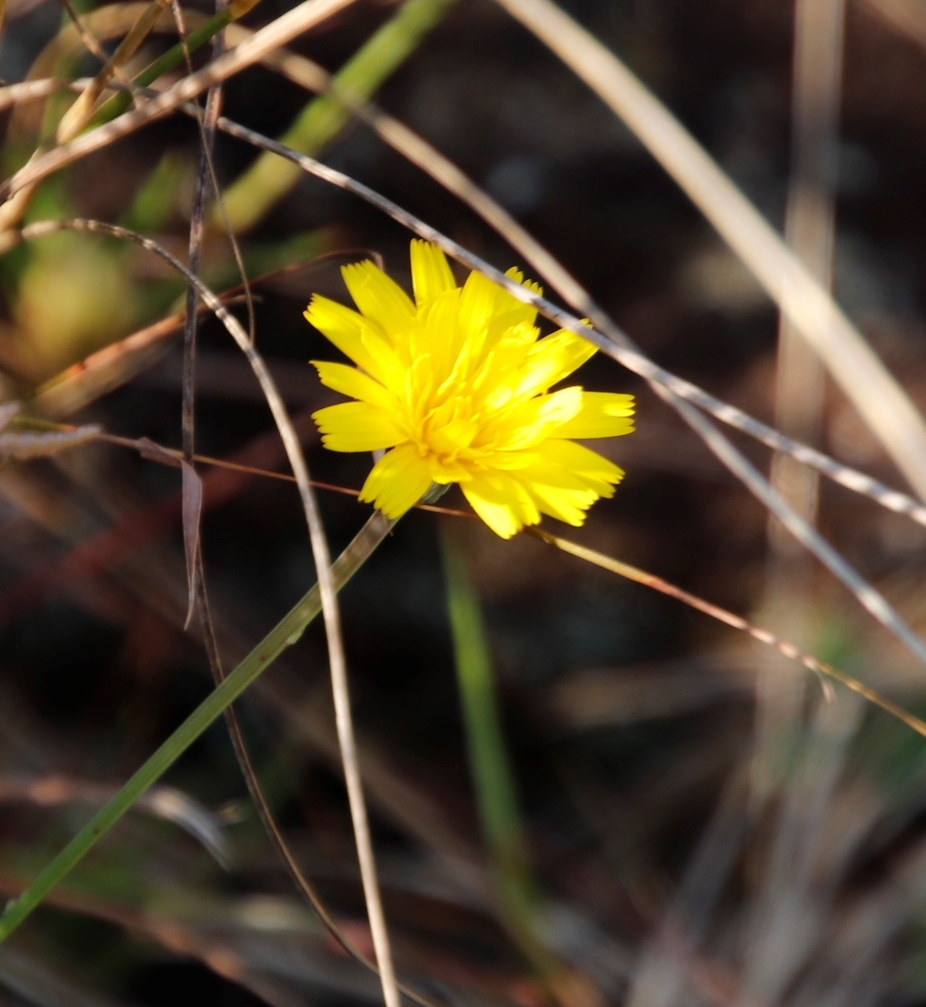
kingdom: Plantae
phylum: Tracheophyta
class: Magnoliopsida
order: Asterales
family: Asteraceae
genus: Hypochaeris
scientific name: Hypochaeris radicata
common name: Flatweed
